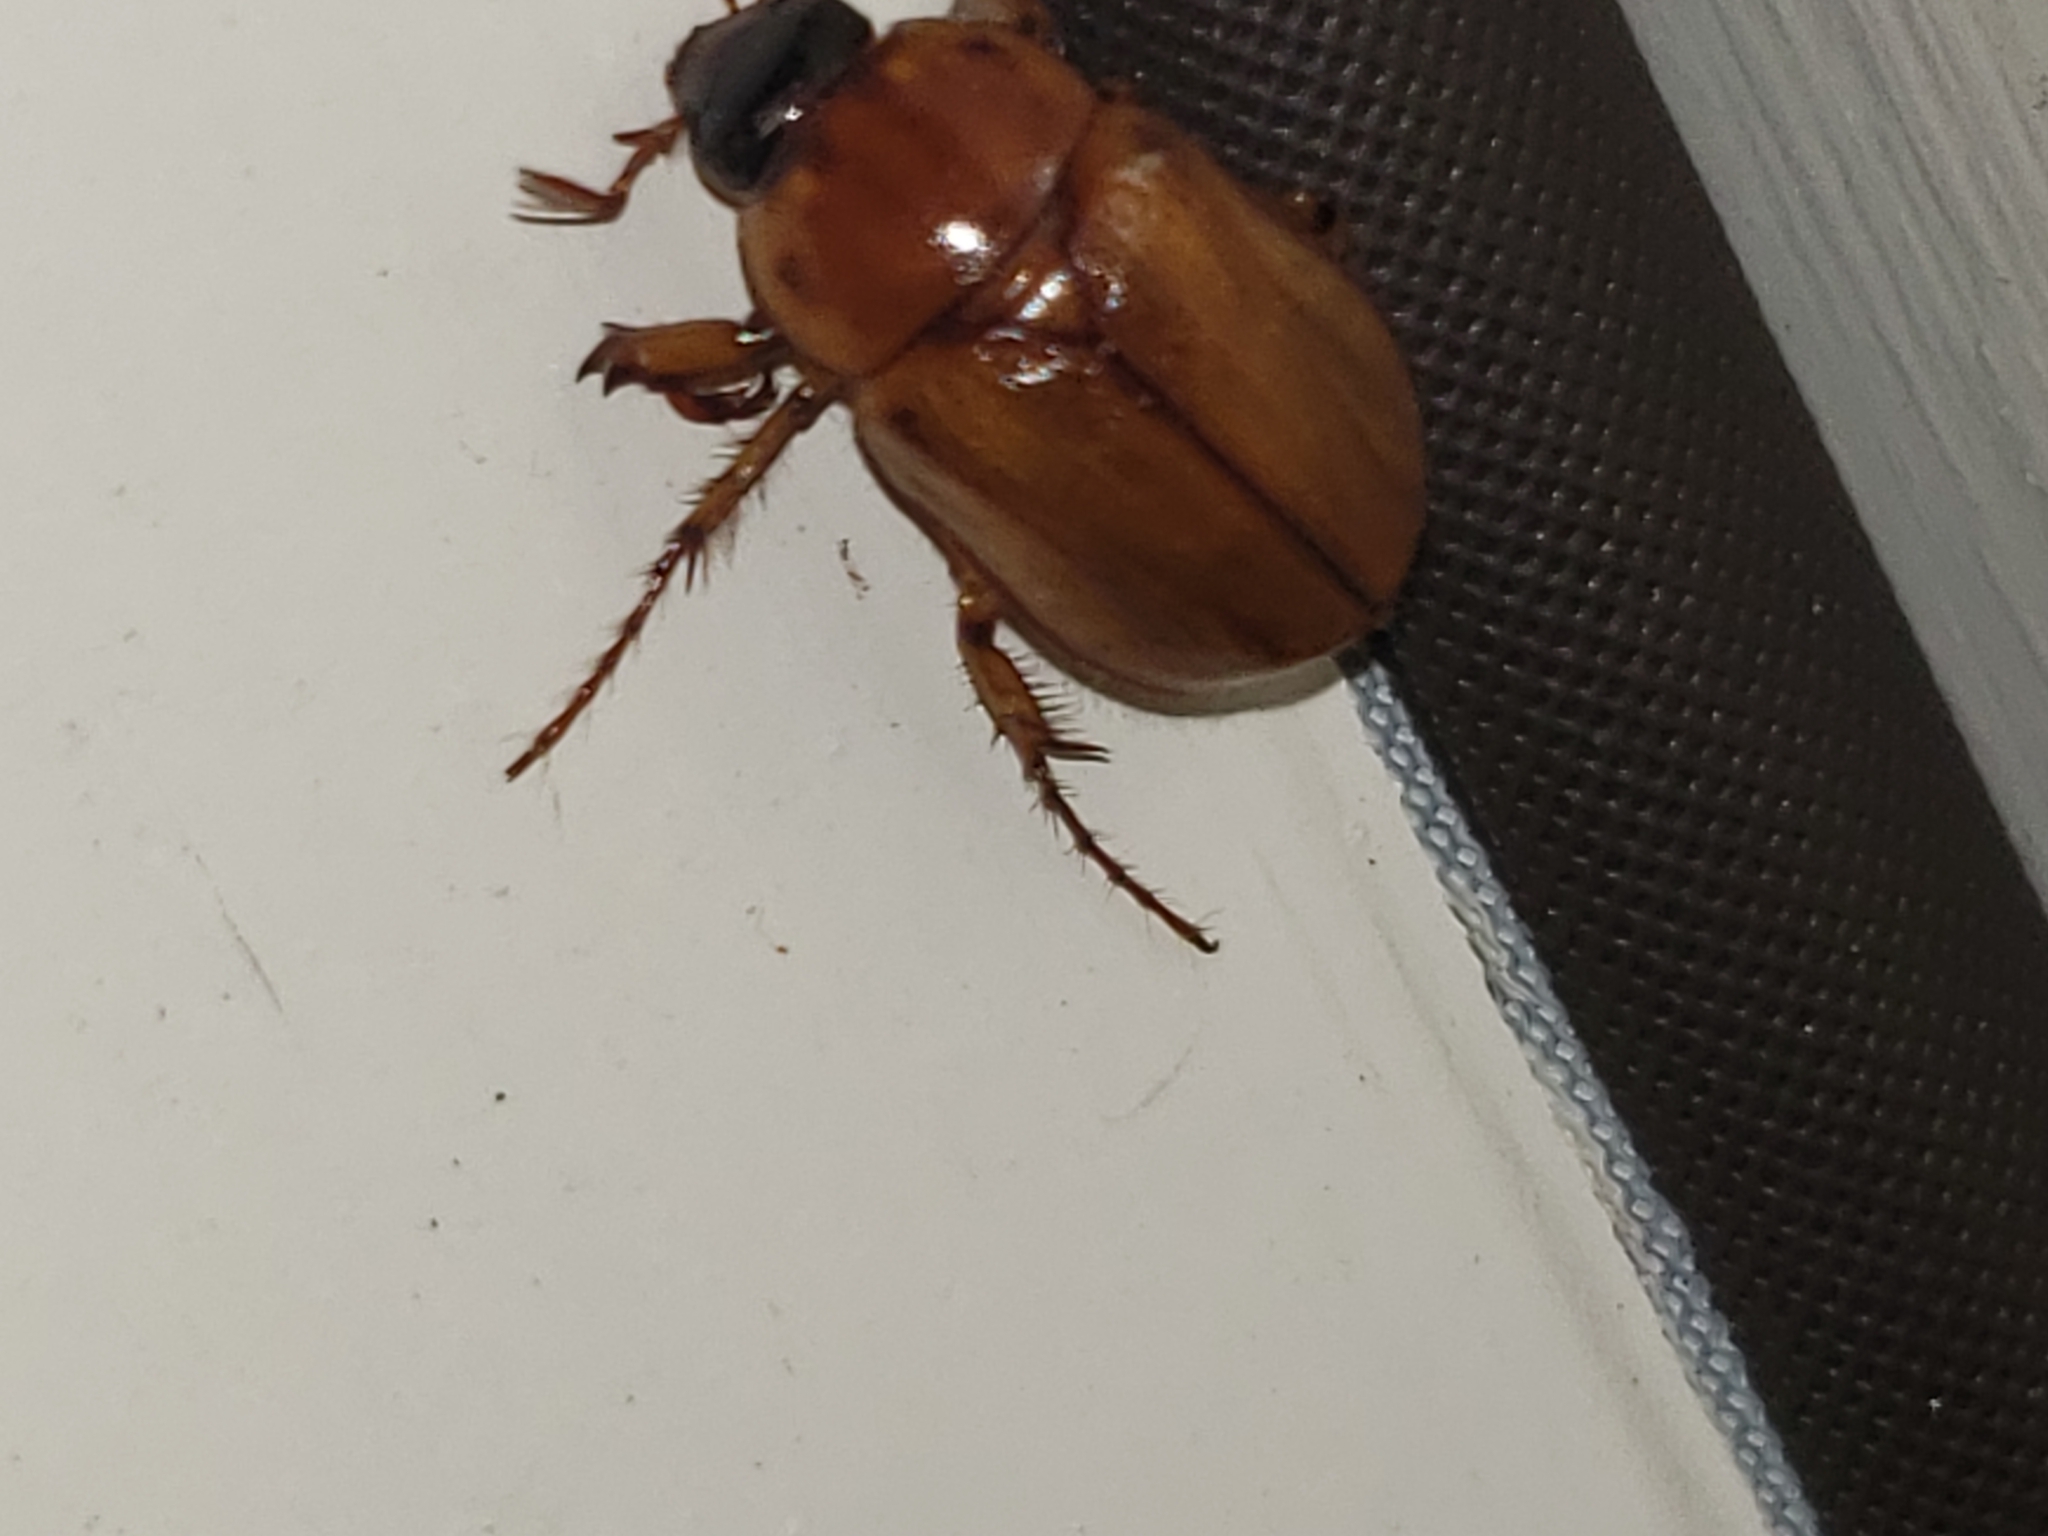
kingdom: Animalia
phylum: Arthropoda
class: Insecta
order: Coleoptera
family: Scarabaeidae
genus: Cyclocephala
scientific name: Cyclocephala lurida
